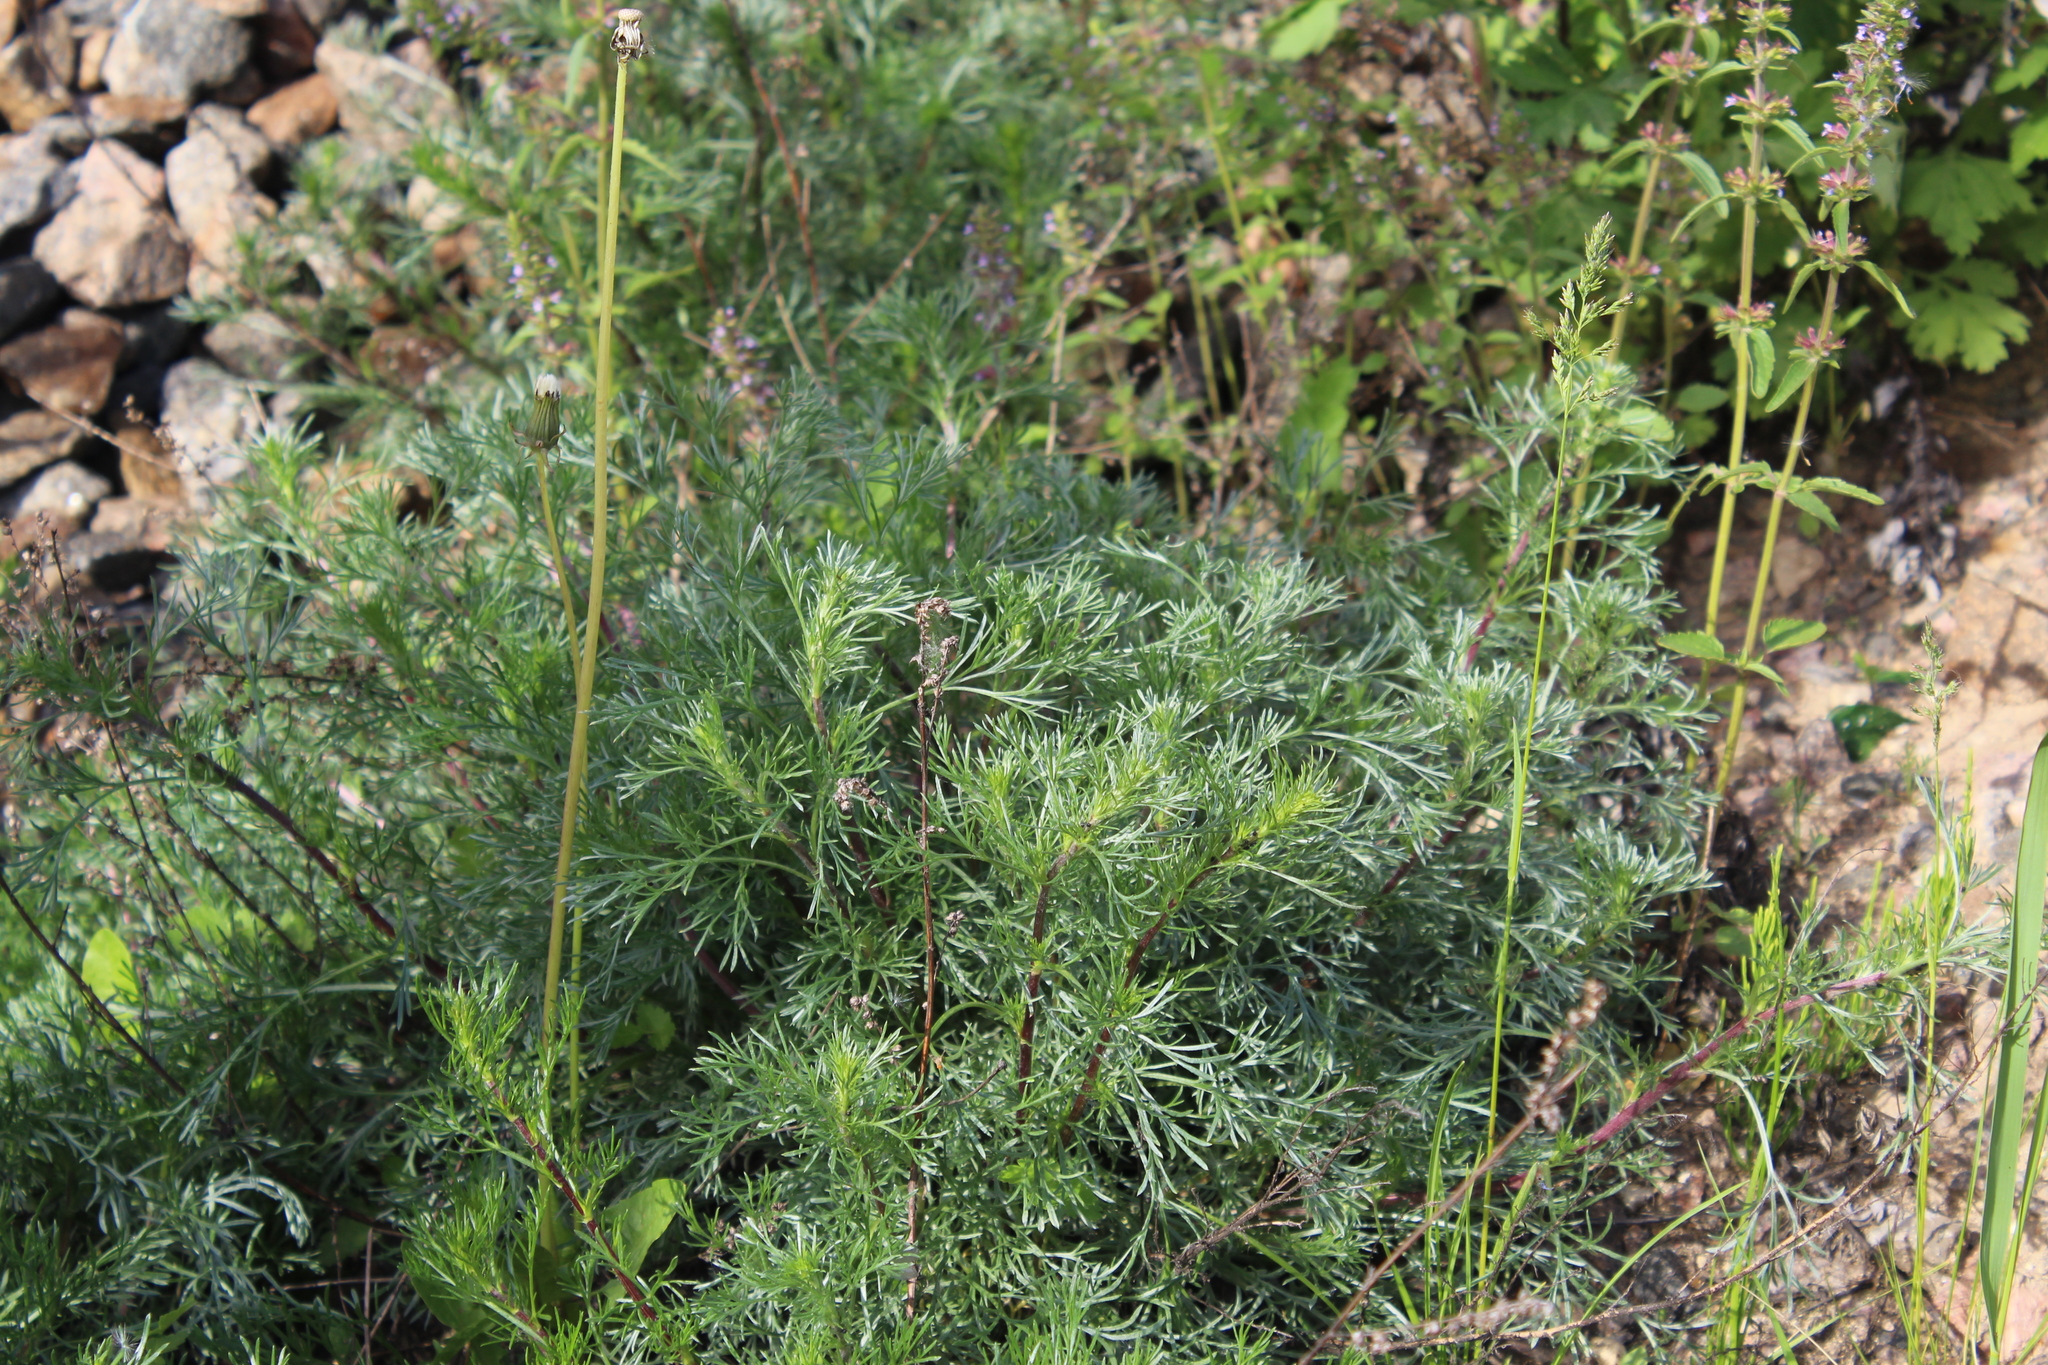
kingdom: Plantae
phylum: Tracheophyta
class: Magnoliopsida
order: Asterales
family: Asteraceae
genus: Artemisia
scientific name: Artemisia campestris
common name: Field wormwood
